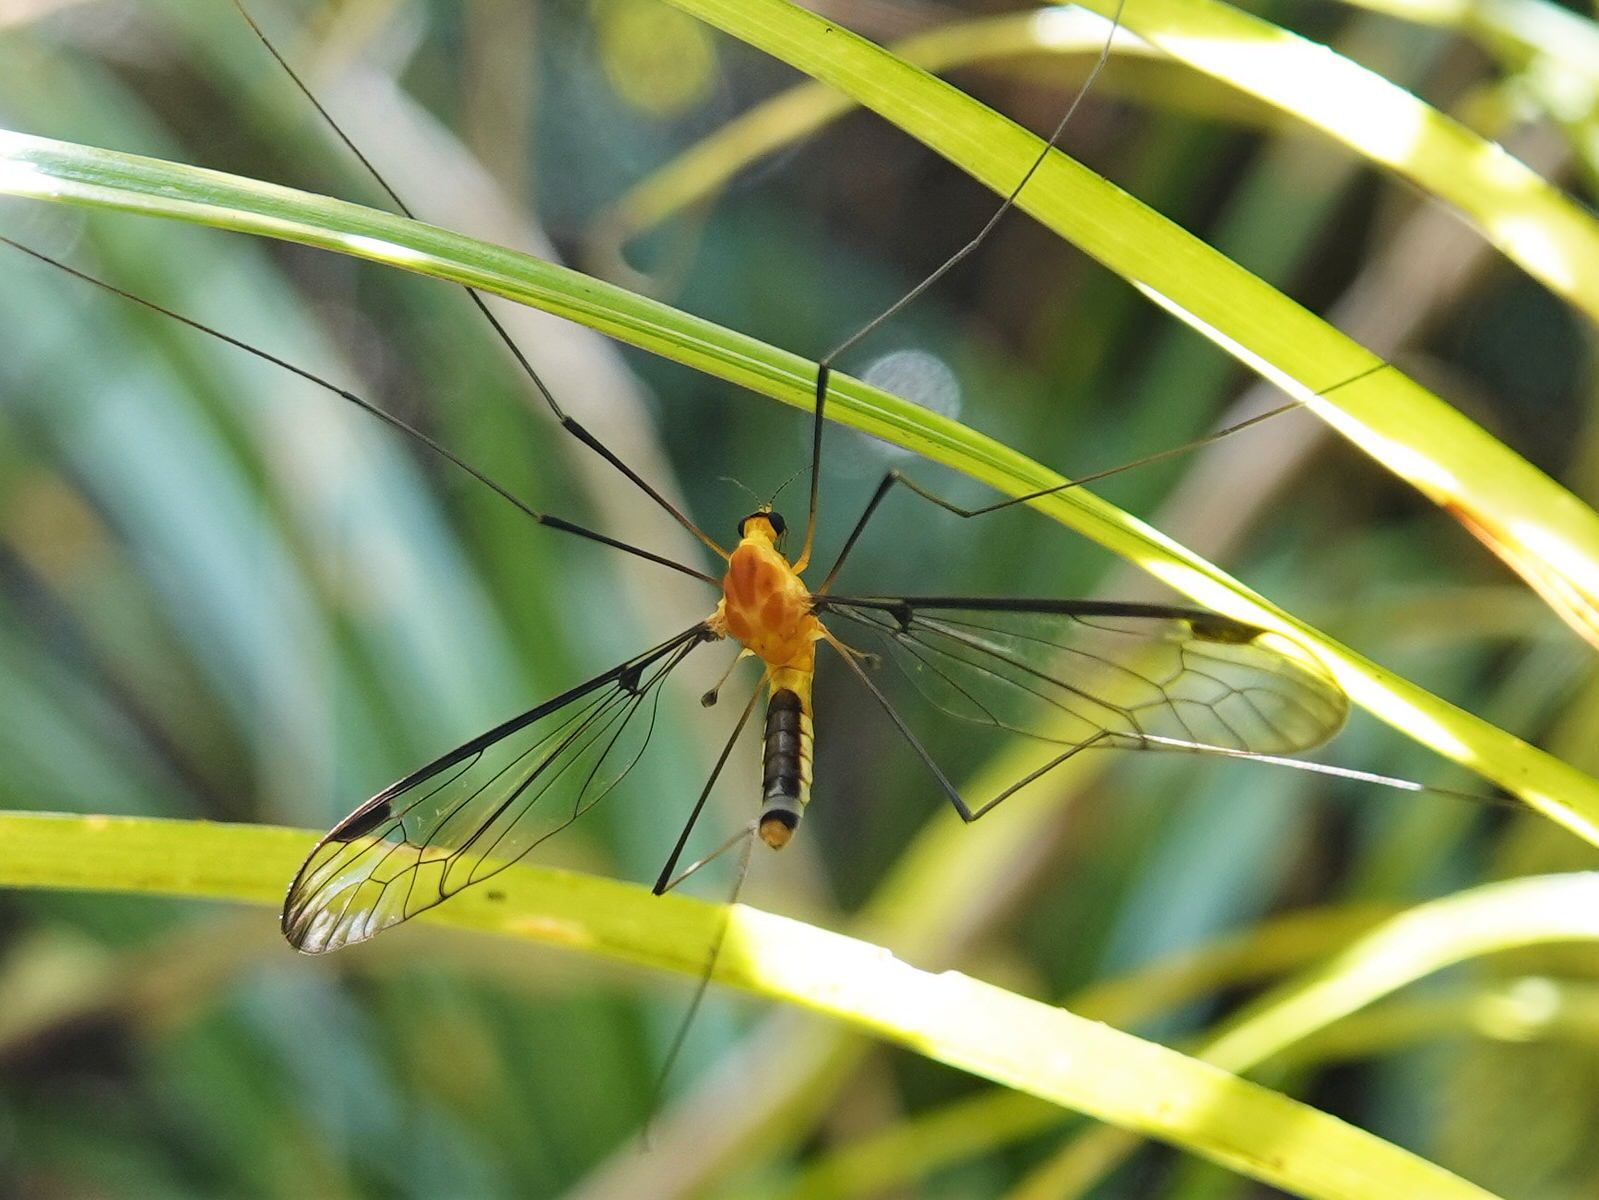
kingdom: Animalia
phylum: Arthropoda
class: Insecta
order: Diptera
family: Tipulidae
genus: Aurotipula
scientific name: Aurotipula
